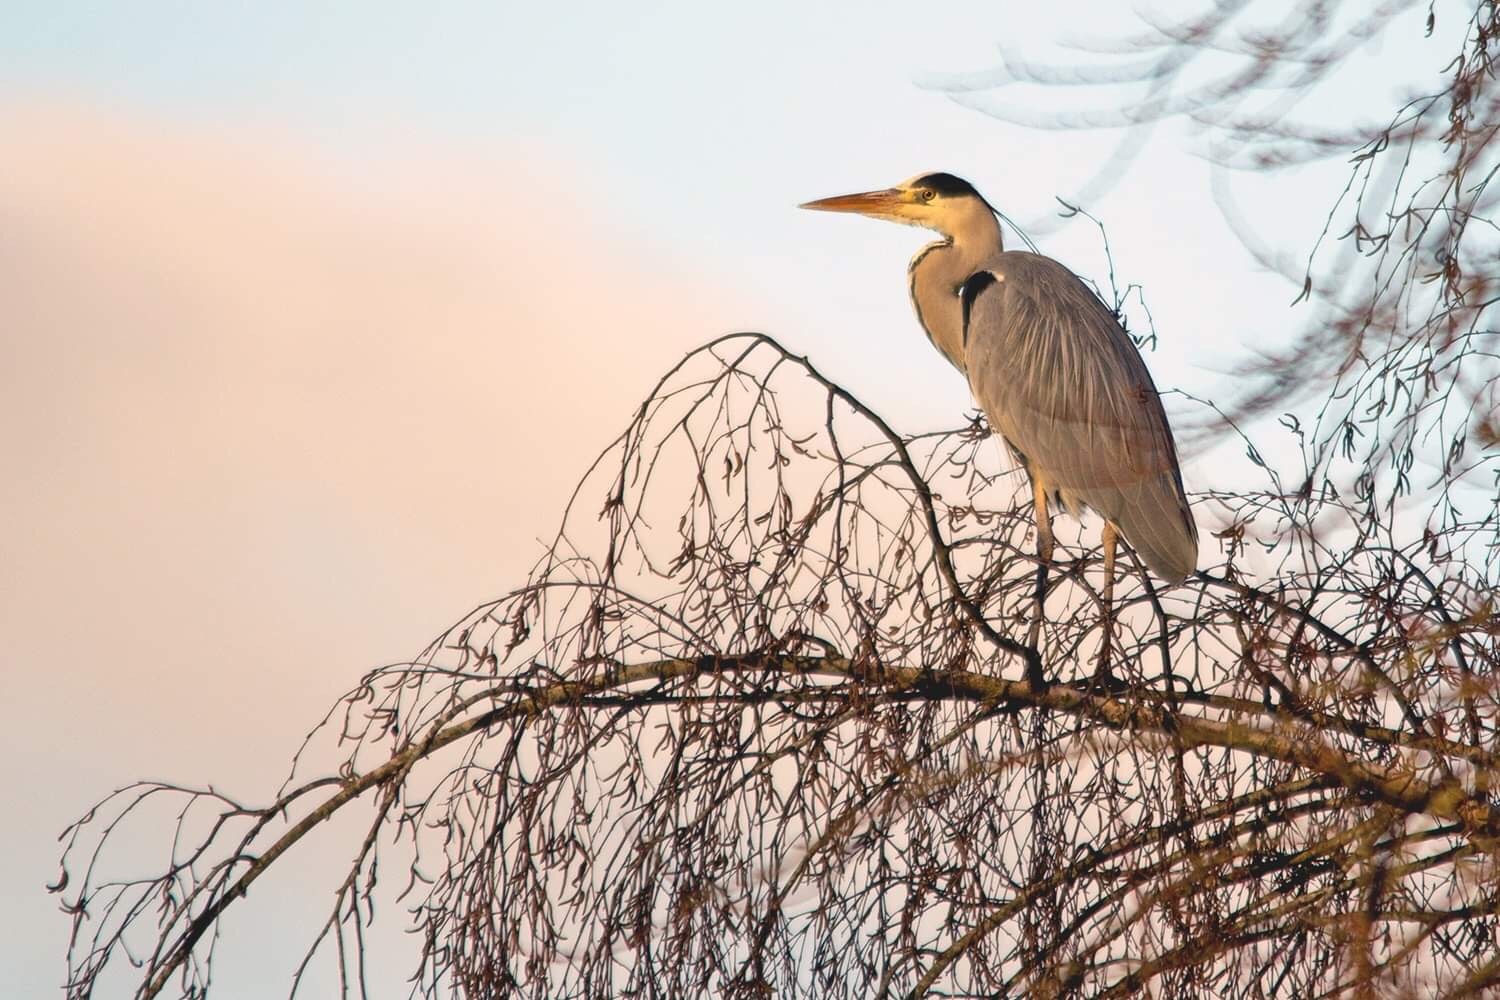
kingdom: Animalia
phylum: Chordata
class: Aves
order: Pelecaniformes
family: Ardeidae
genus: Ardea
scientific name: Ardea cinerea
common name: Grey heron
